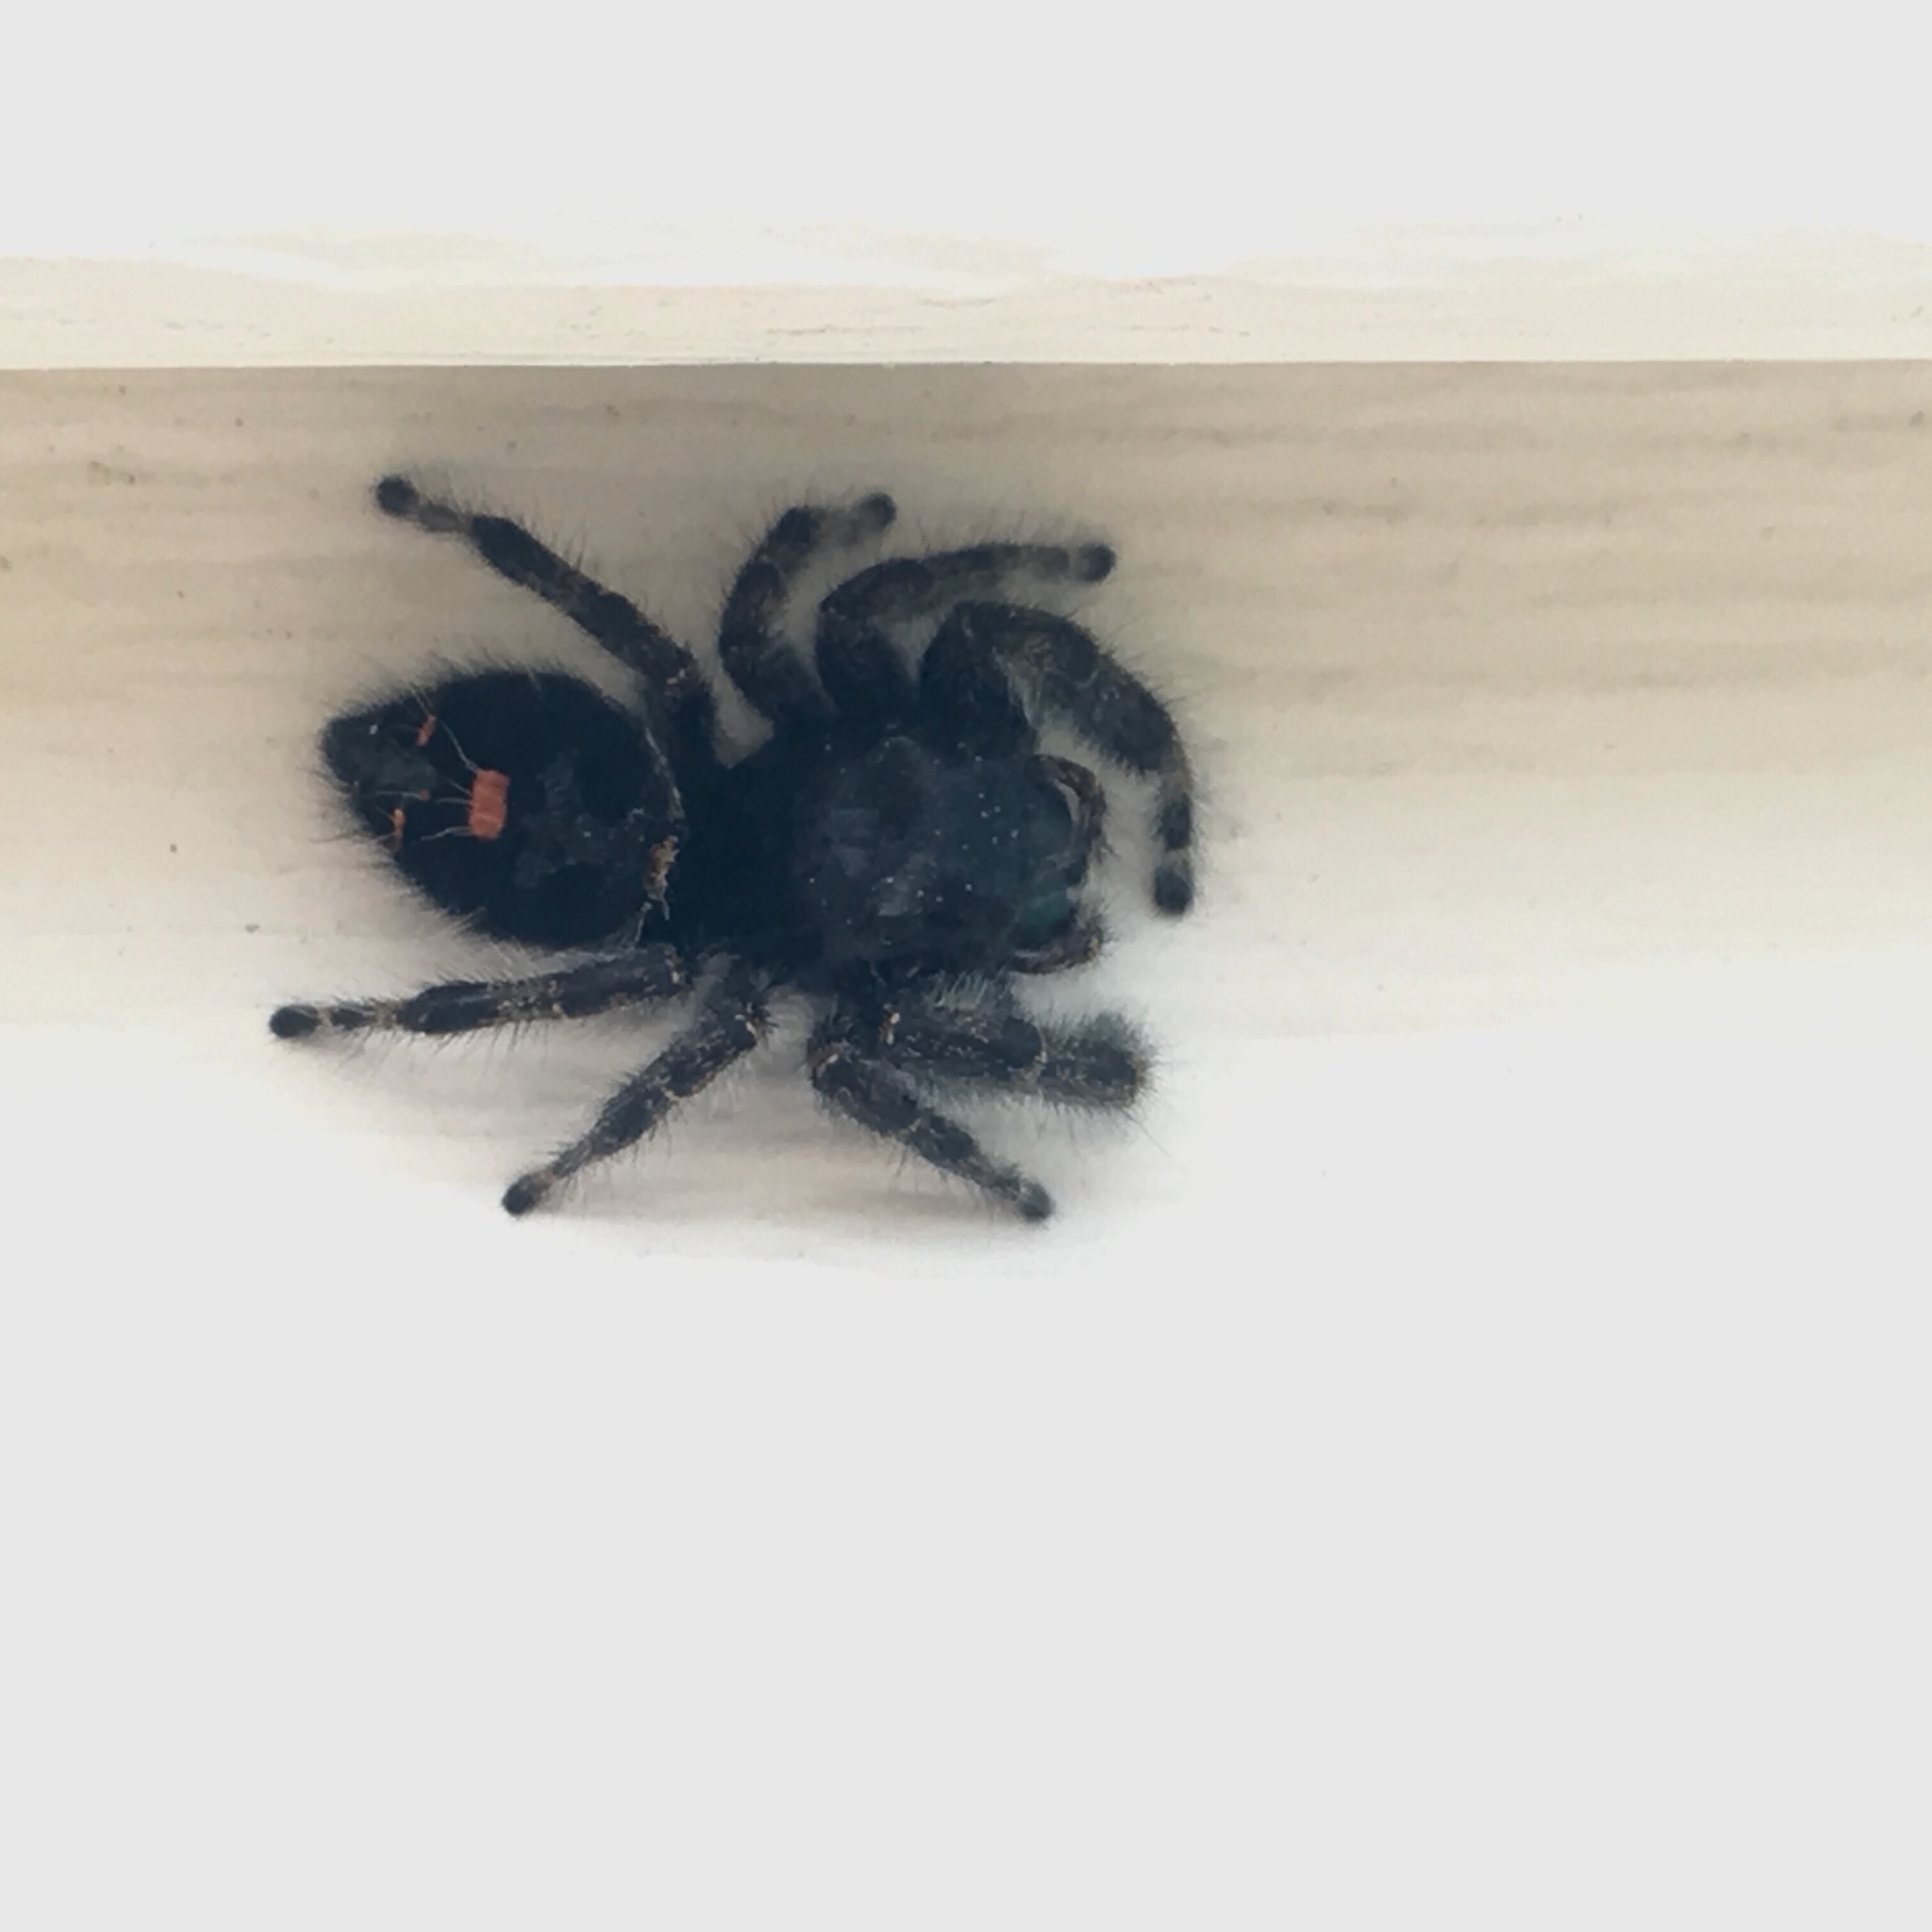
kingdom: Animalia
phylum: Arthropoda
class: Arachnida
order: Araneae
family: Salticidae
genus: Phidippus
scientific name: Phidippus audax
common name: Bold jumper
